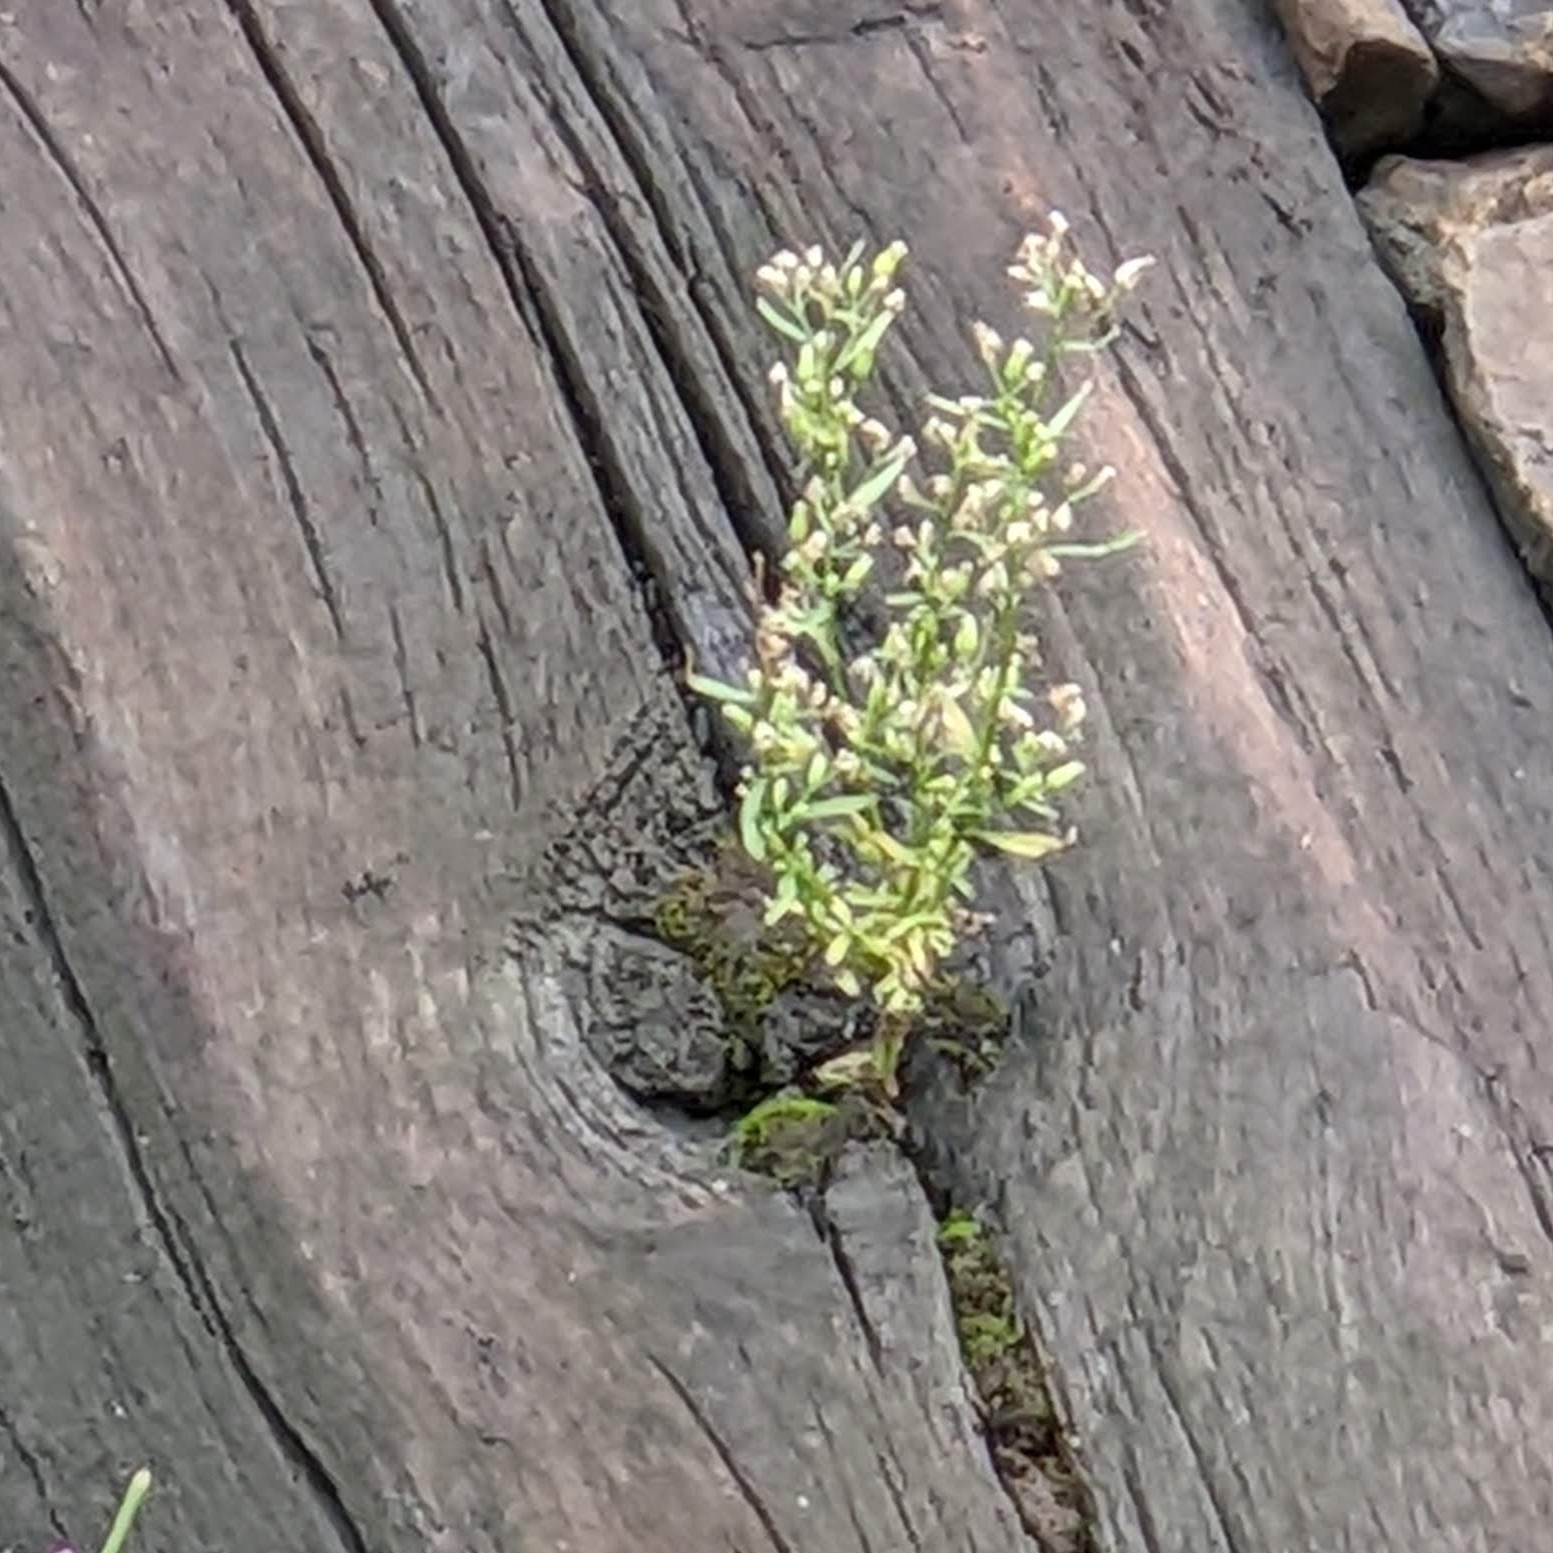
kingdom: Plantae
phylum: Tracheophyta
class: Magnoliopsida
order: Asterales
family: Asteraceae
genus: Erigeron
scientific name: Erigeron canadensis
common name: Canadian fleabane
